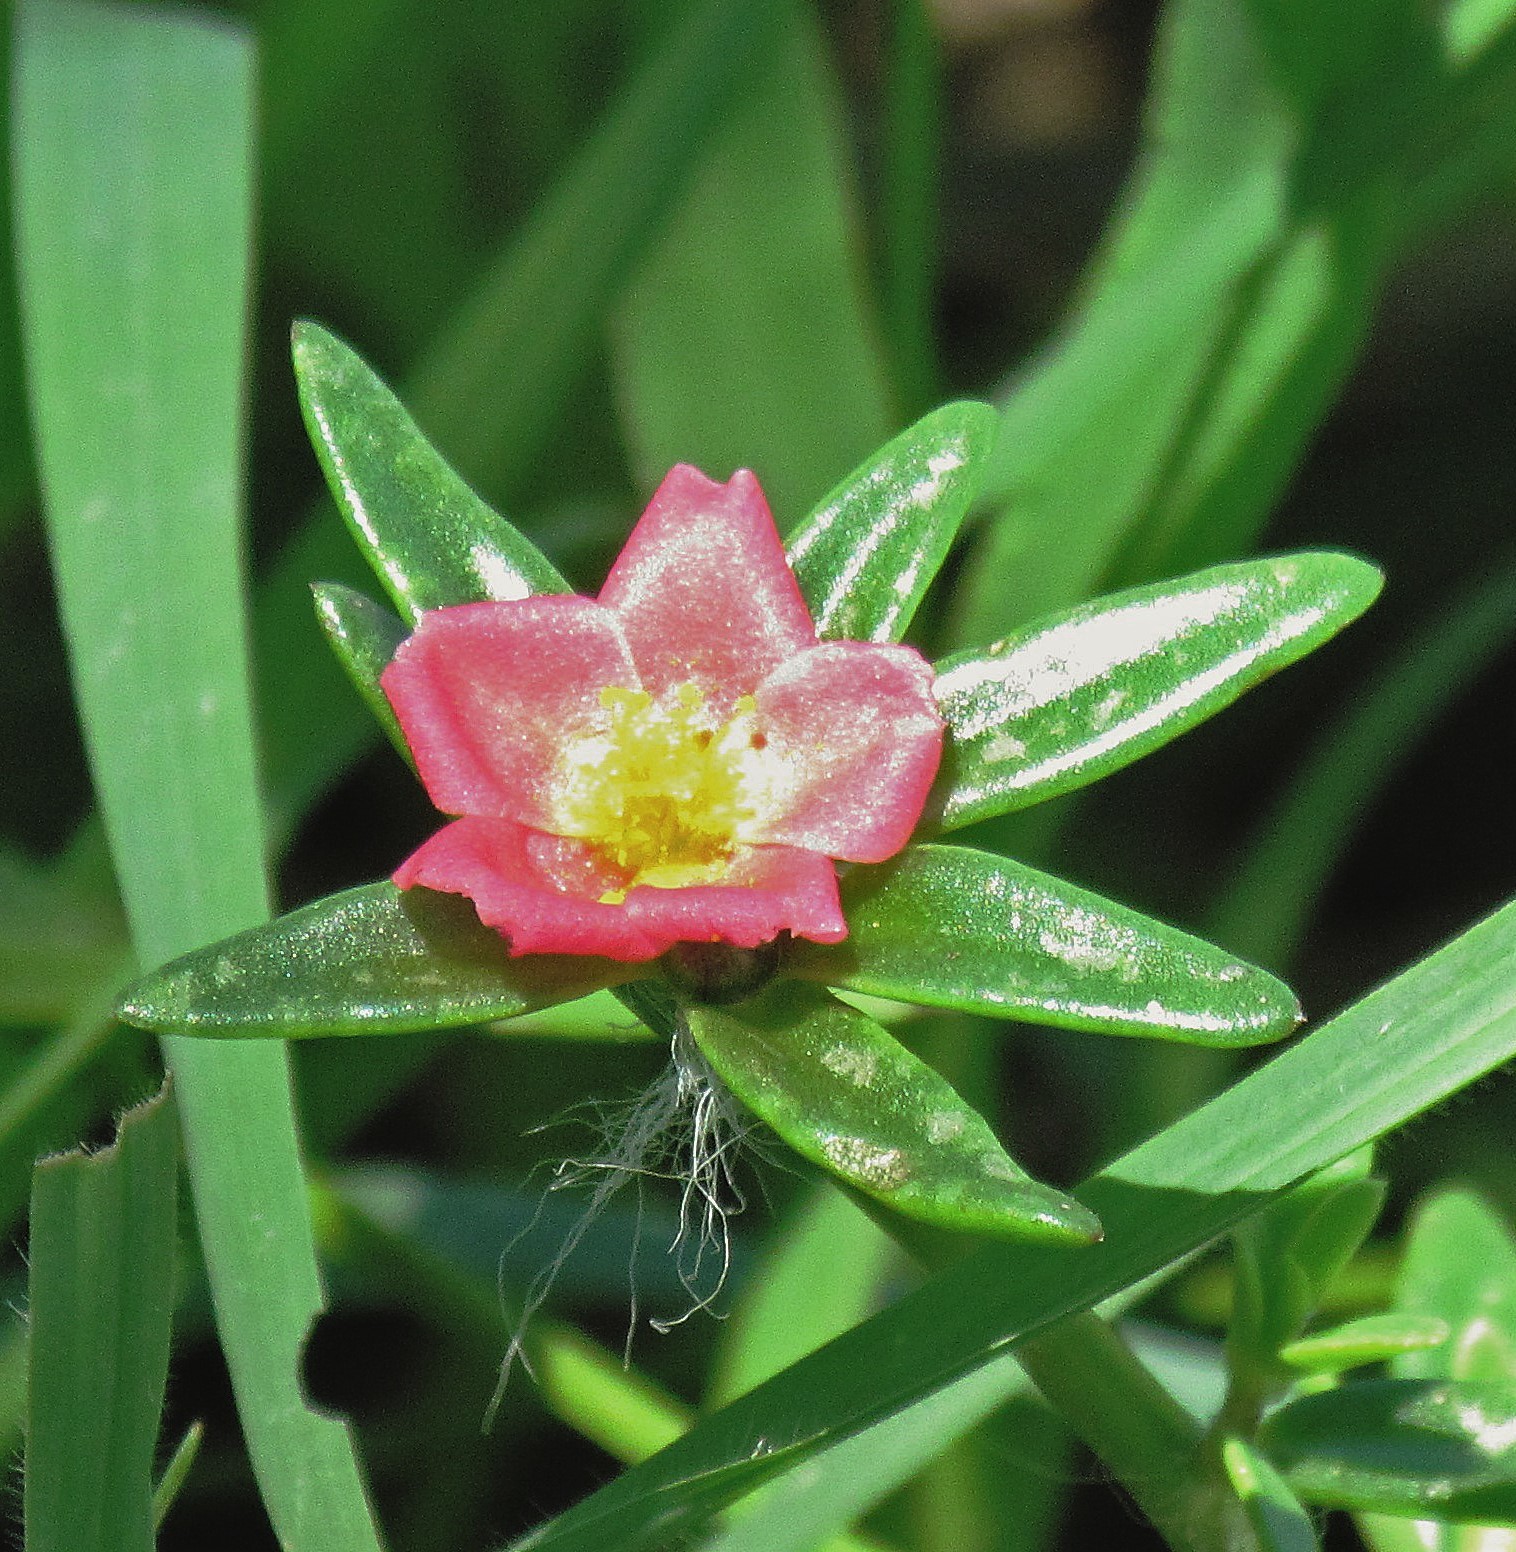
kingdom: Plantae
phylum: Tracheophyta
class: Magnoliopsida
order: Caryophyllales
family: Portulacaceae
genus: Portulaca
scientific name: Portulaca cryptopetala
